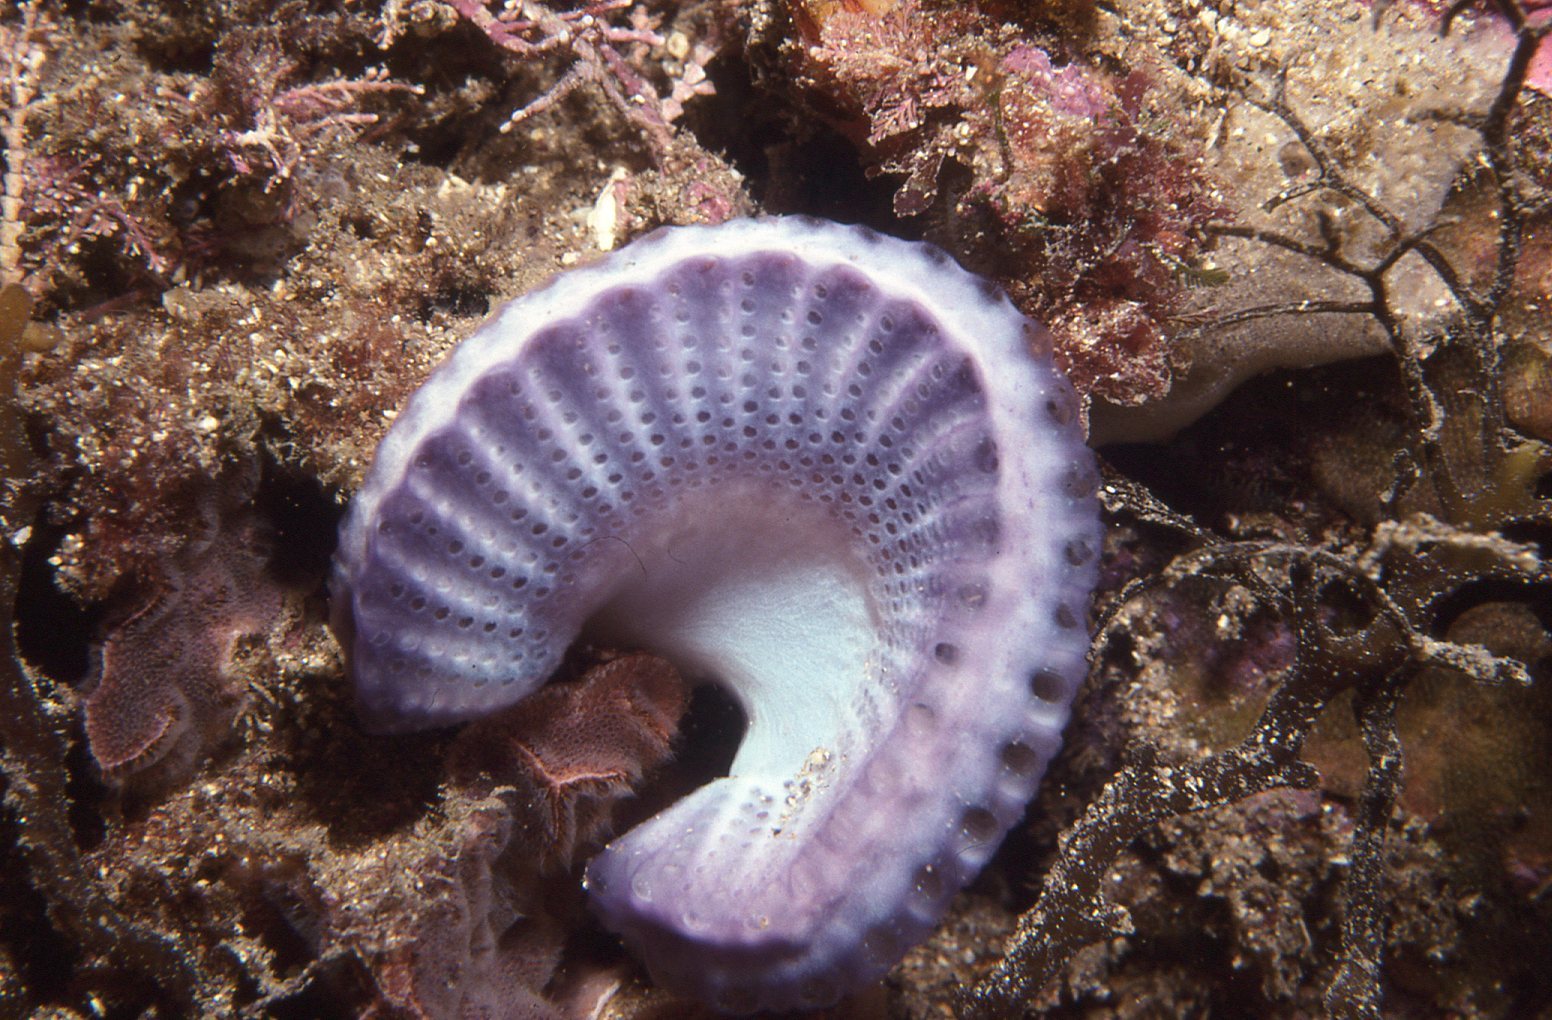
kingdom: Animalia
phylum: Chordata
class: Ascidiacea
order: Aplousobranchia
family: Holozoidae
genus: Sycozoa
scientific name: Sycozoa cerebriformis
